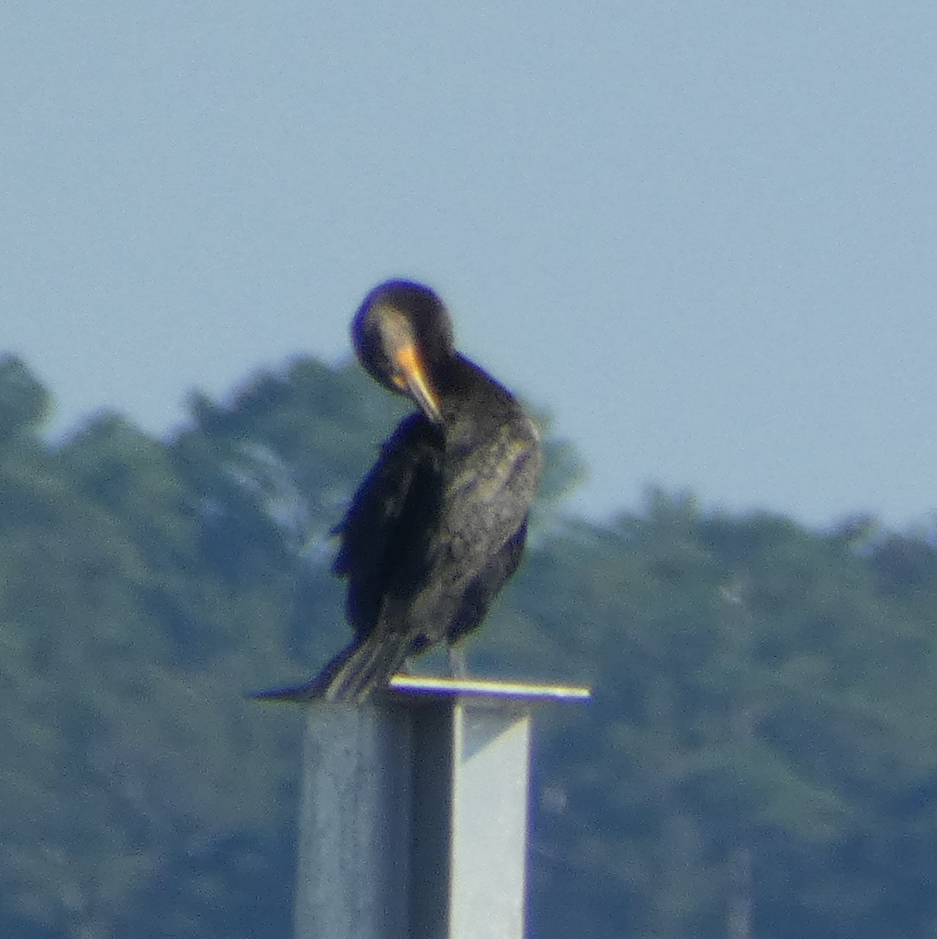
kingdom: Animalia
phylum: Chordata
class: Aves
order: Suliformes
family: Phalacrocoracidae
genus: Phalacrocorax
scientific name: Phalacrocorax auritus
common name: Double-crested cormorant
